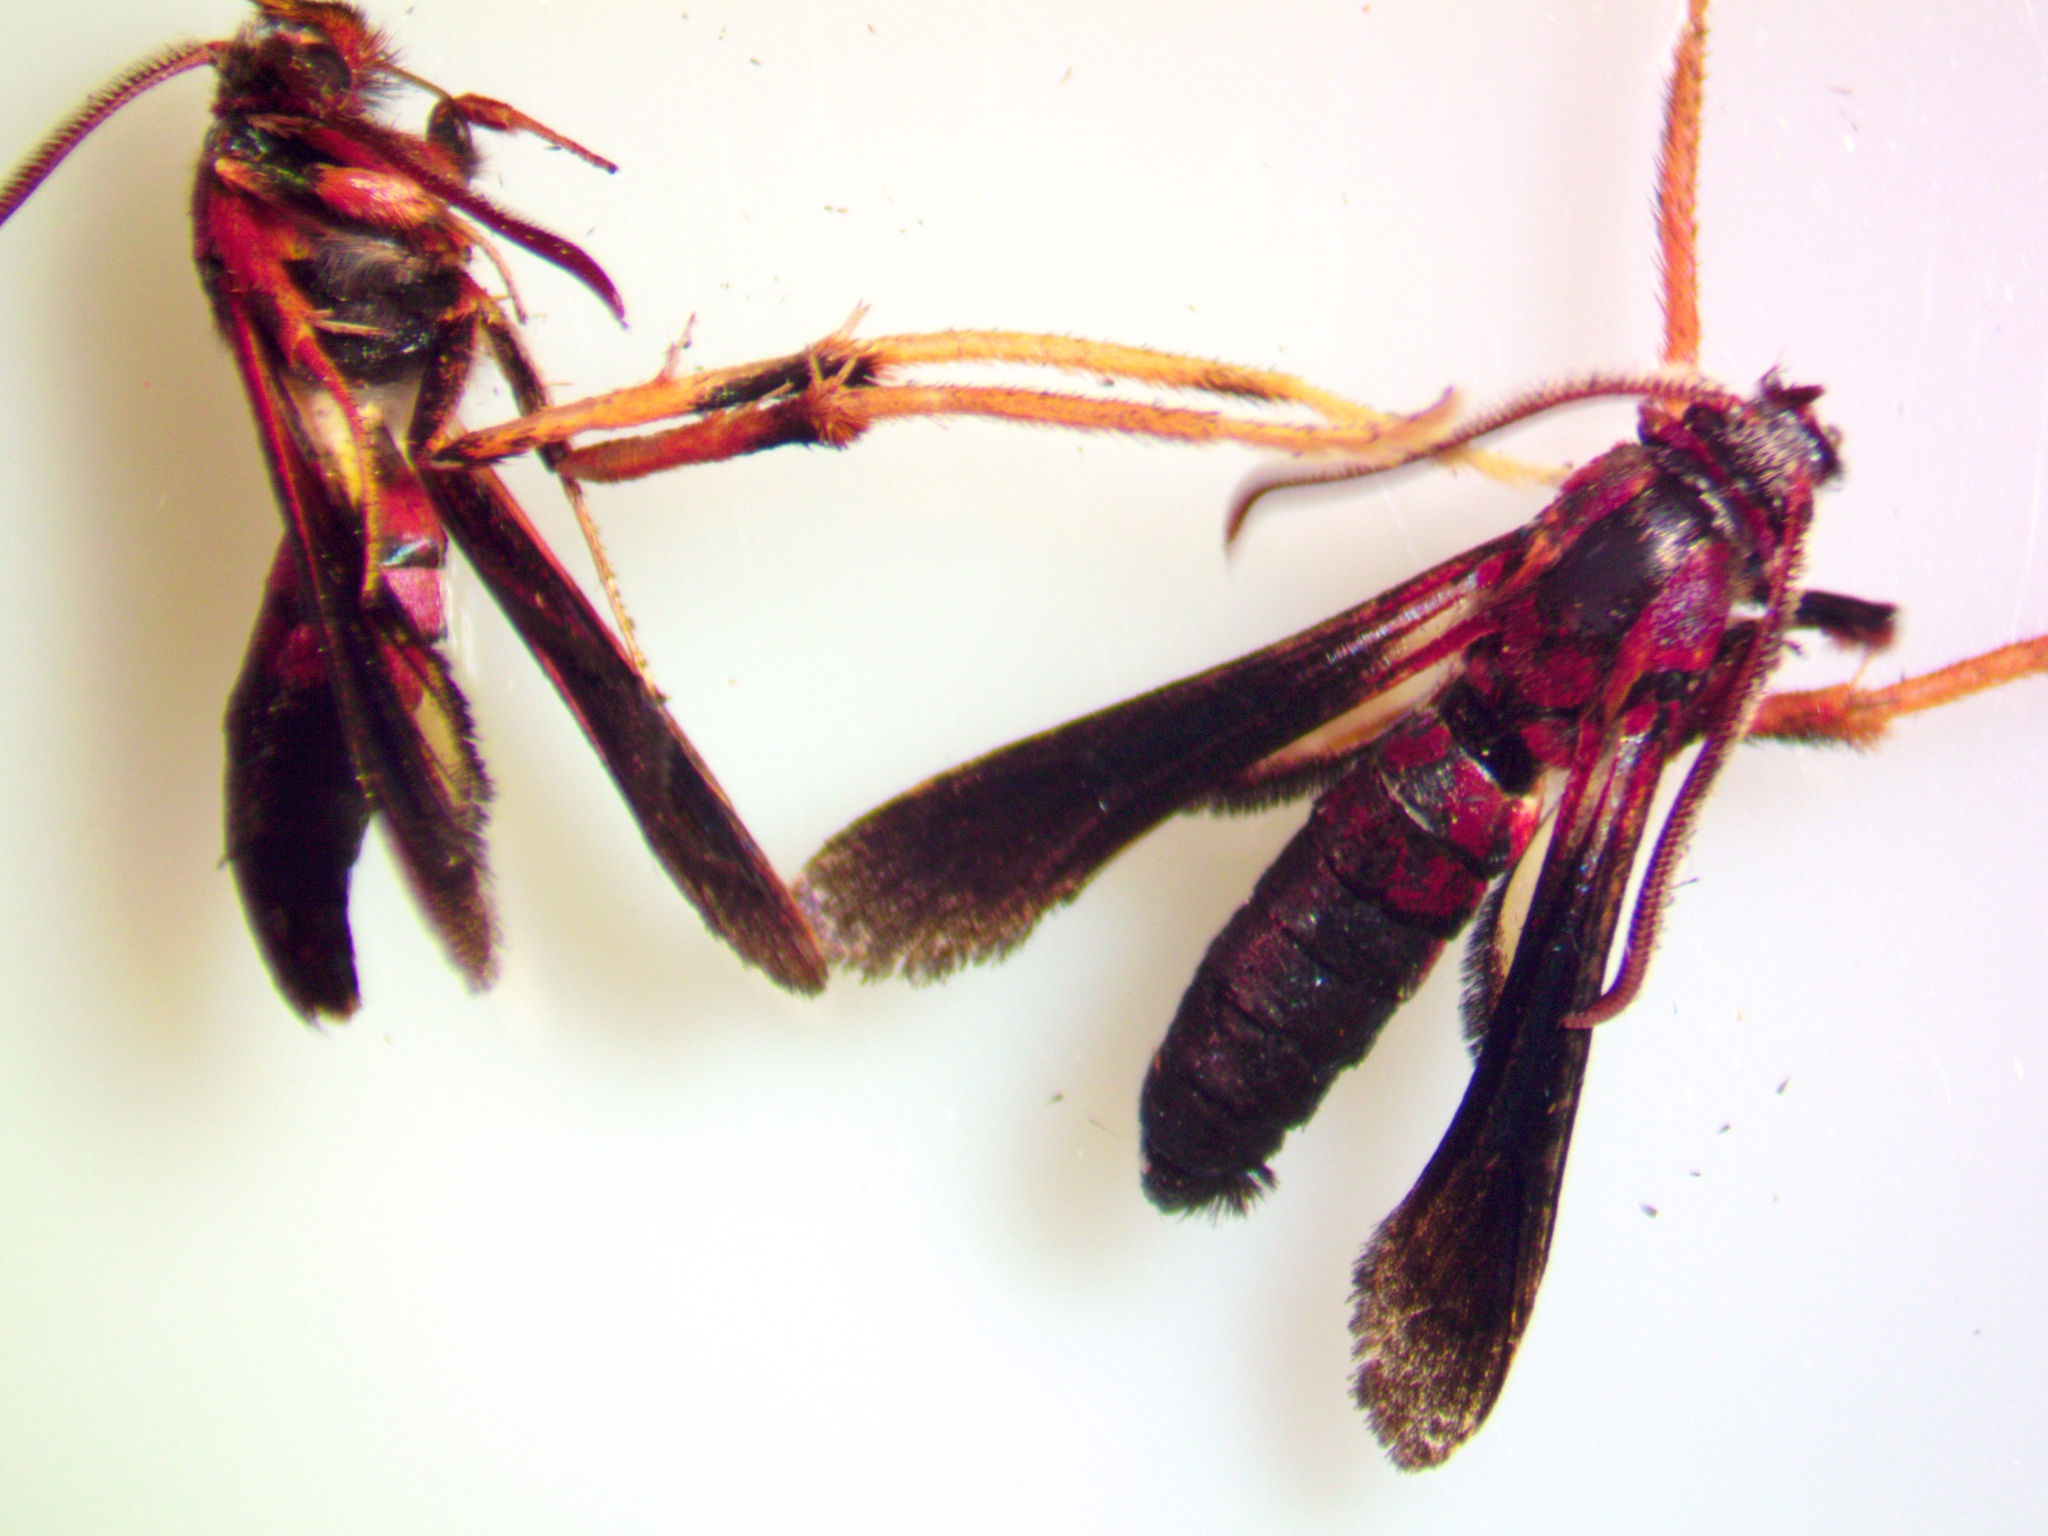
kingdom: Animalia
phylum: Arthropoda
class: Insecta
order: Lepidoptera
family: Sesiidae
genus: Podosesia
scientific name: Podosesia syringae
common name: Lilac borer moth
